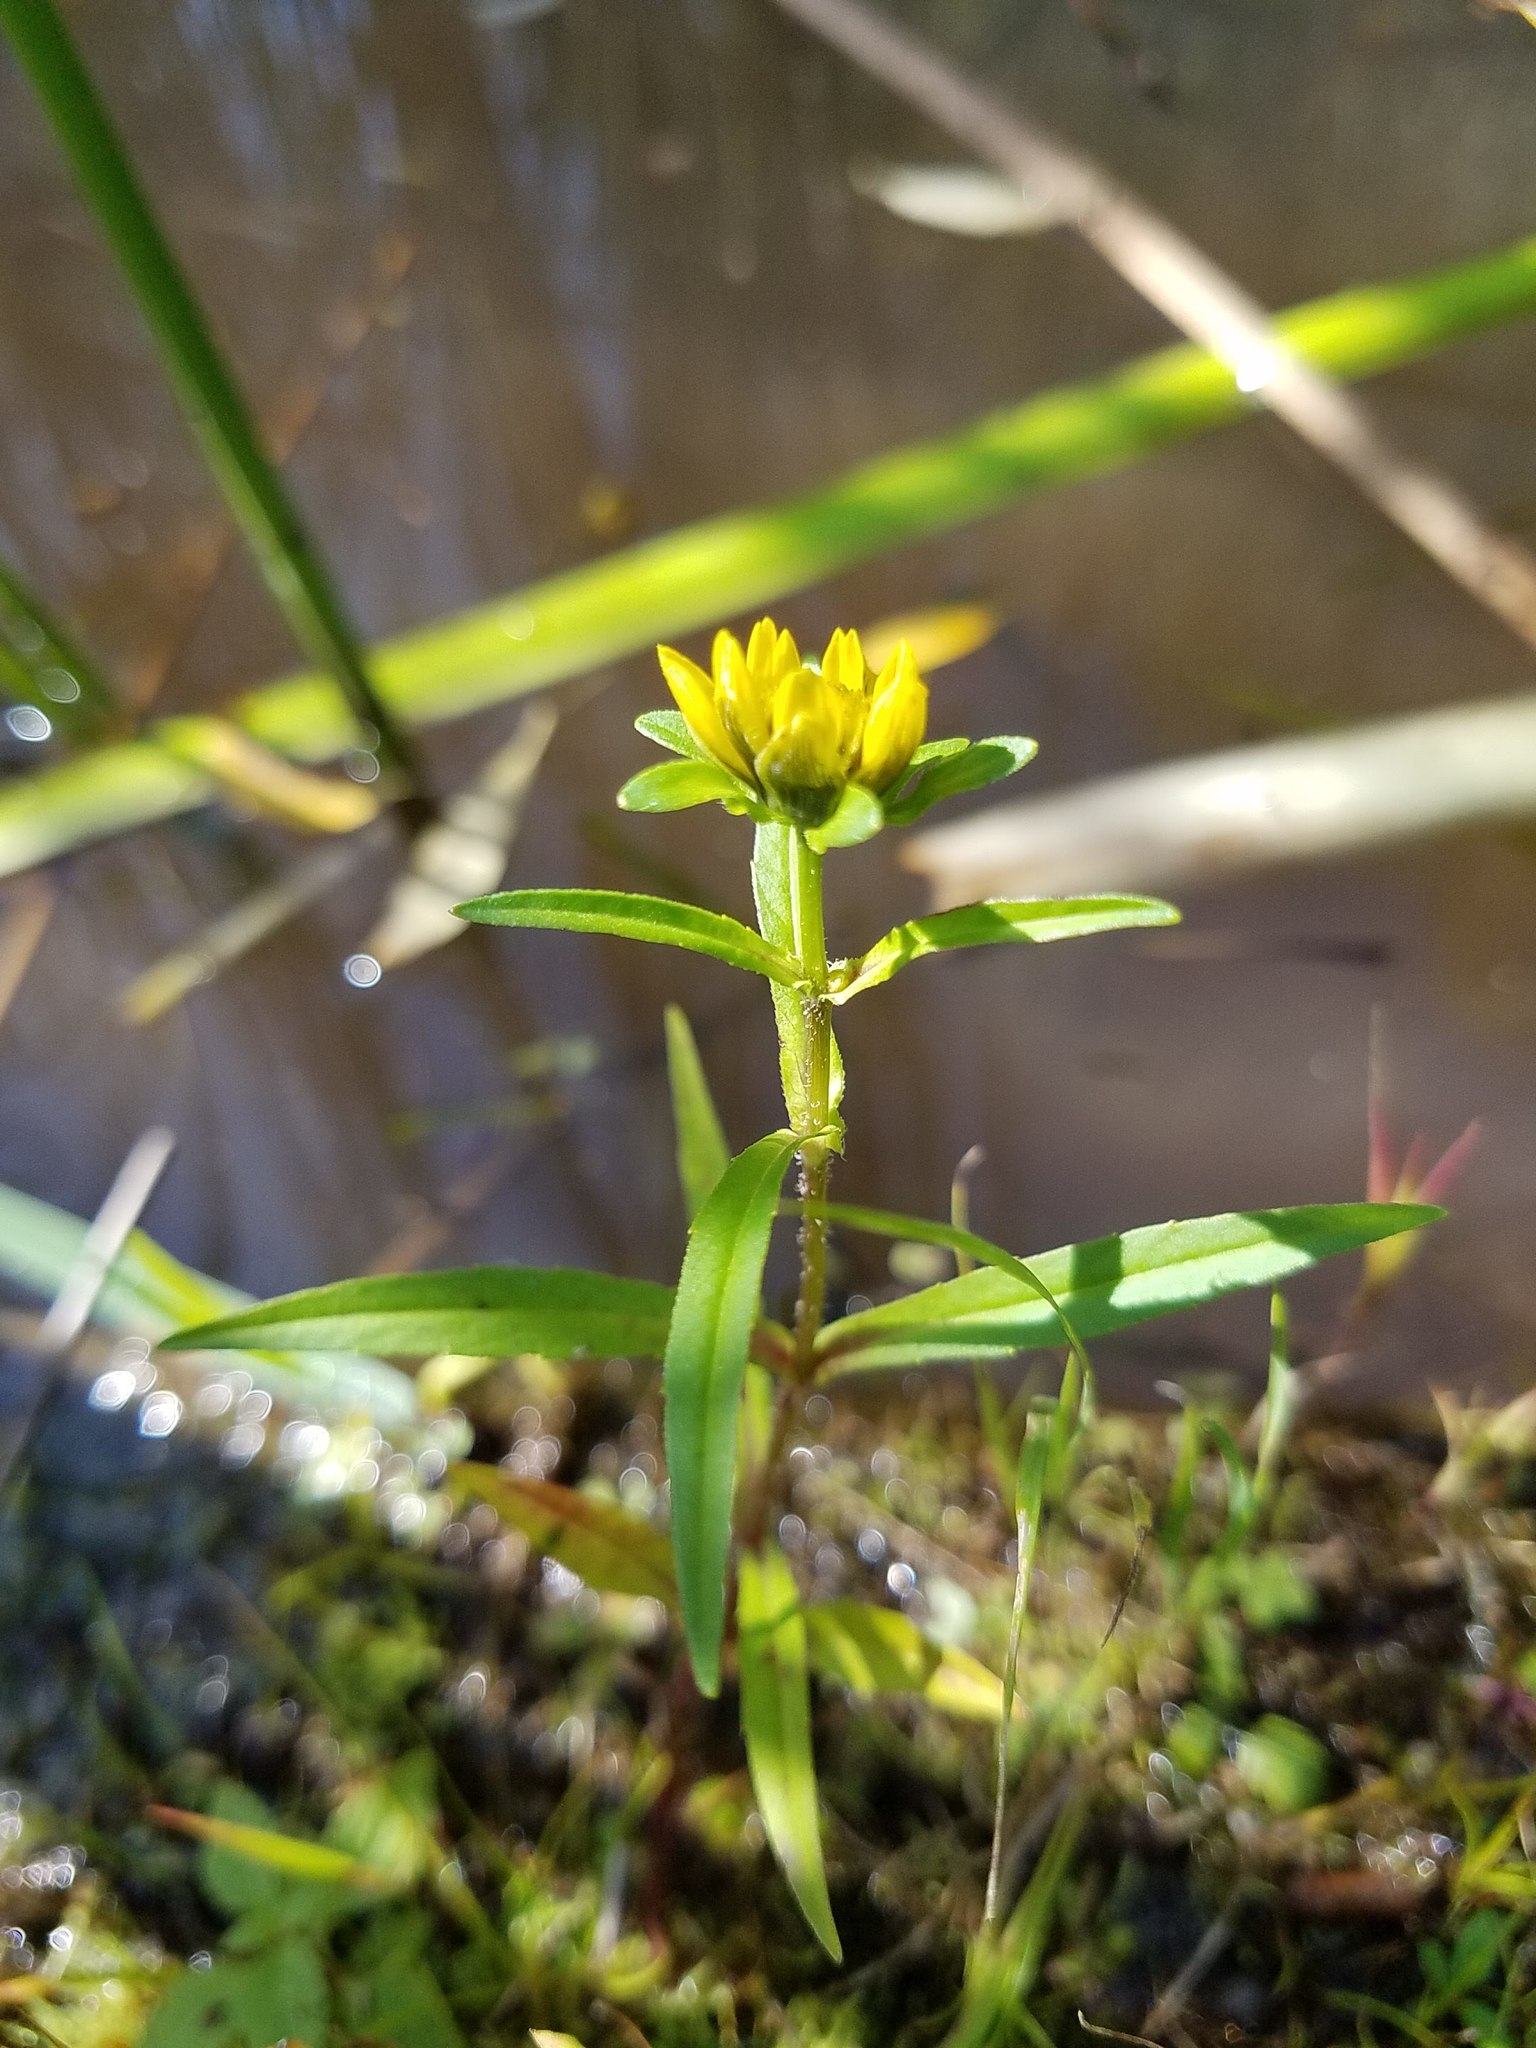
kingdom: Plantae
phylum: Tracheophyta
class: Magnoliopsida
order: Asterales
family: Asteraceae
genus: Bidens
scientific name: Bidens cernua
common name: Nodding bur-marigold
